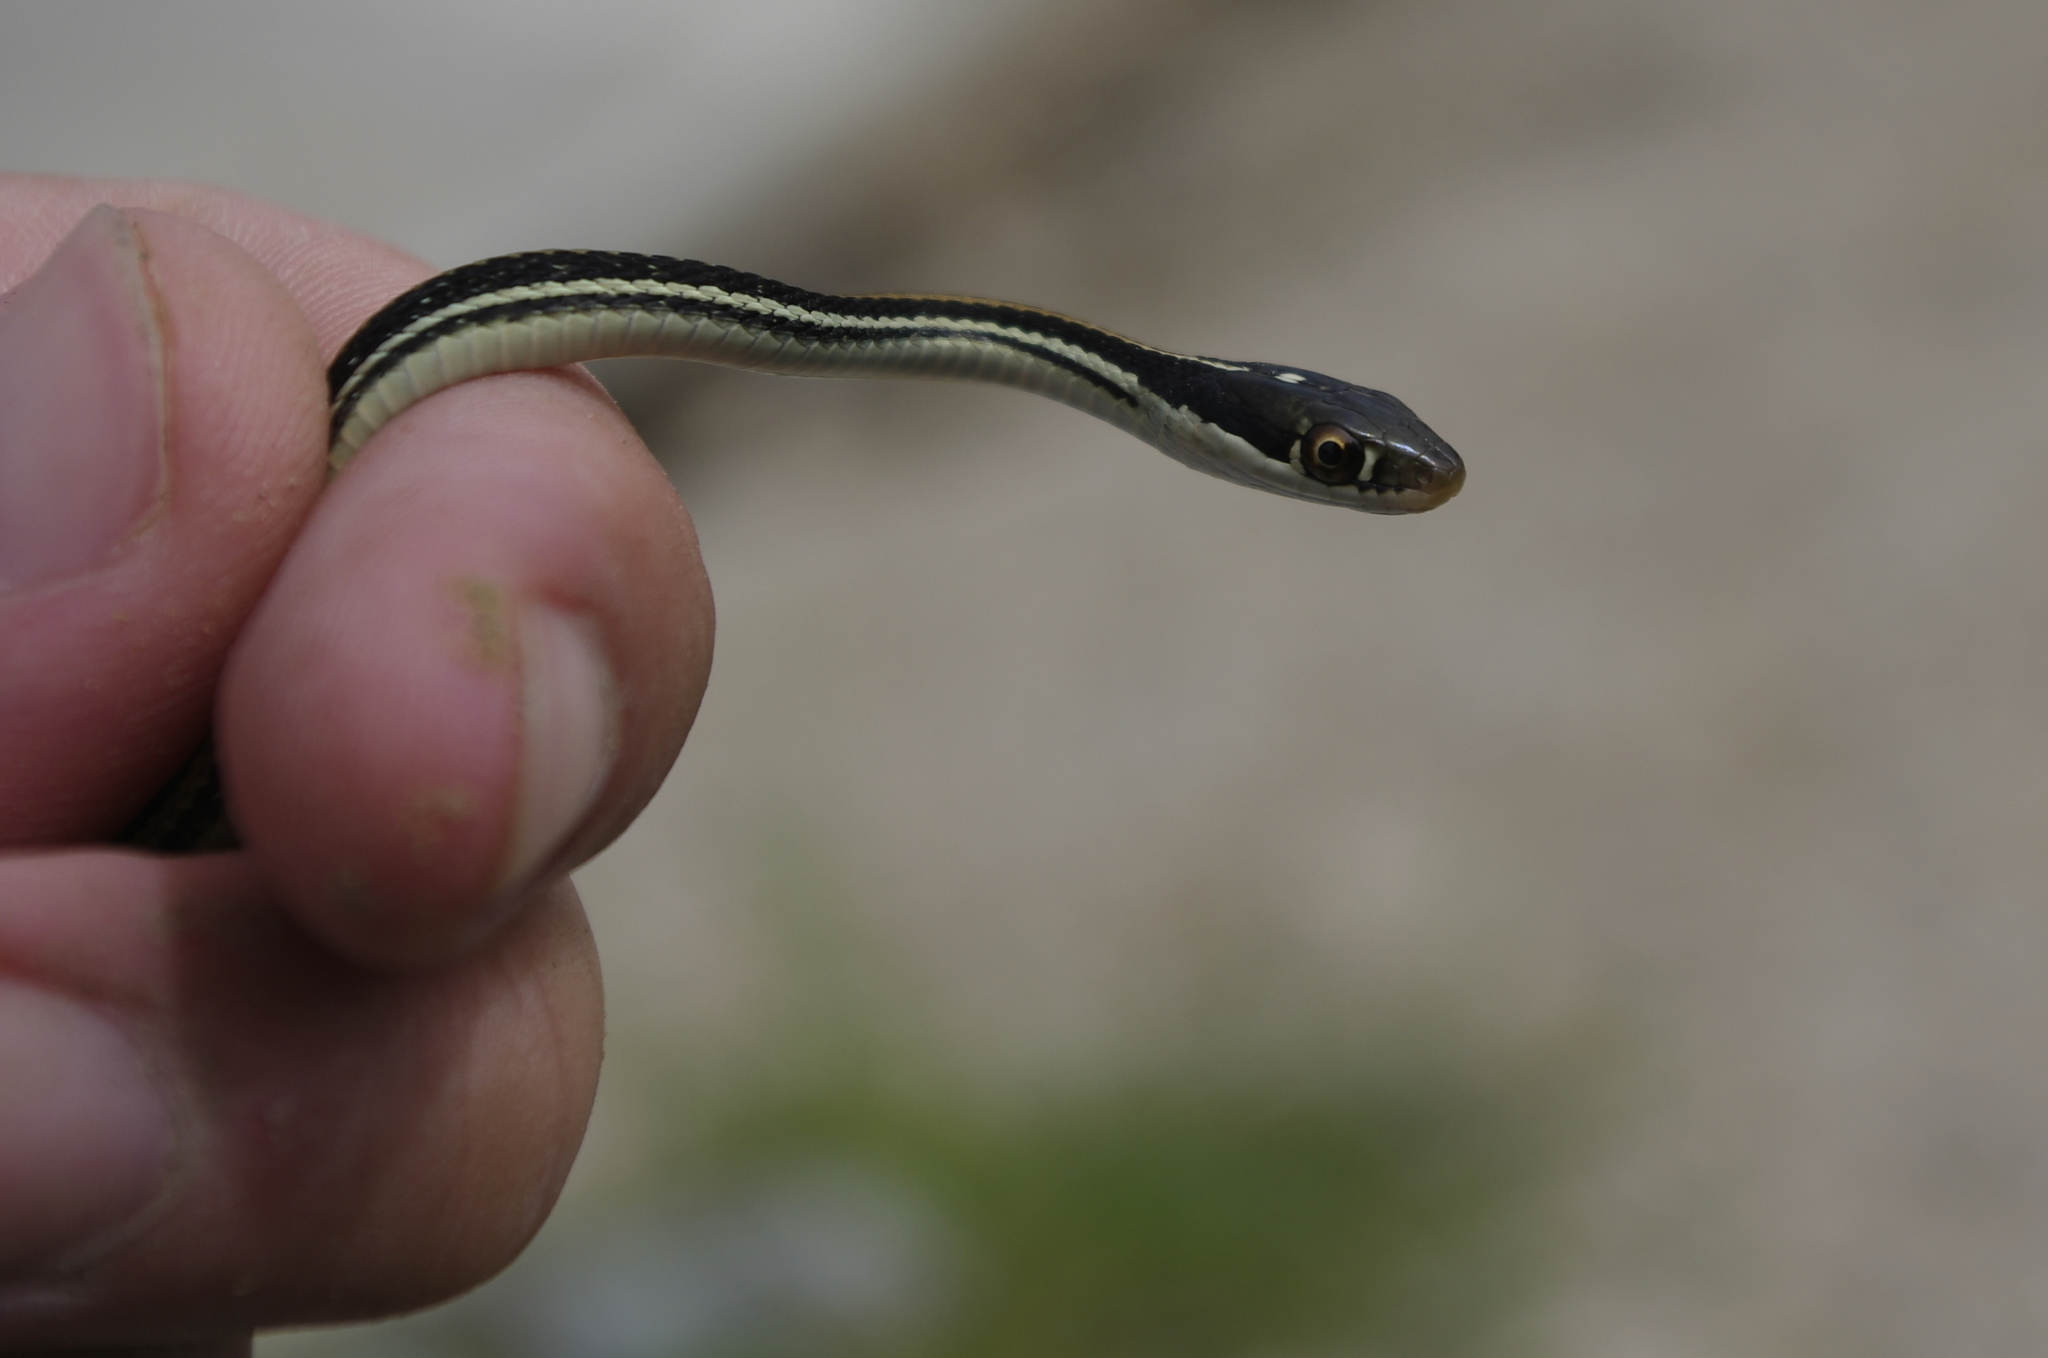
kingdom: Animalia
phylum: Chordata
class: Squamata
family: Colubridae
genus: Thamnophis
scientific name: Thamnophis proximus
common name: Western ribbon snake
